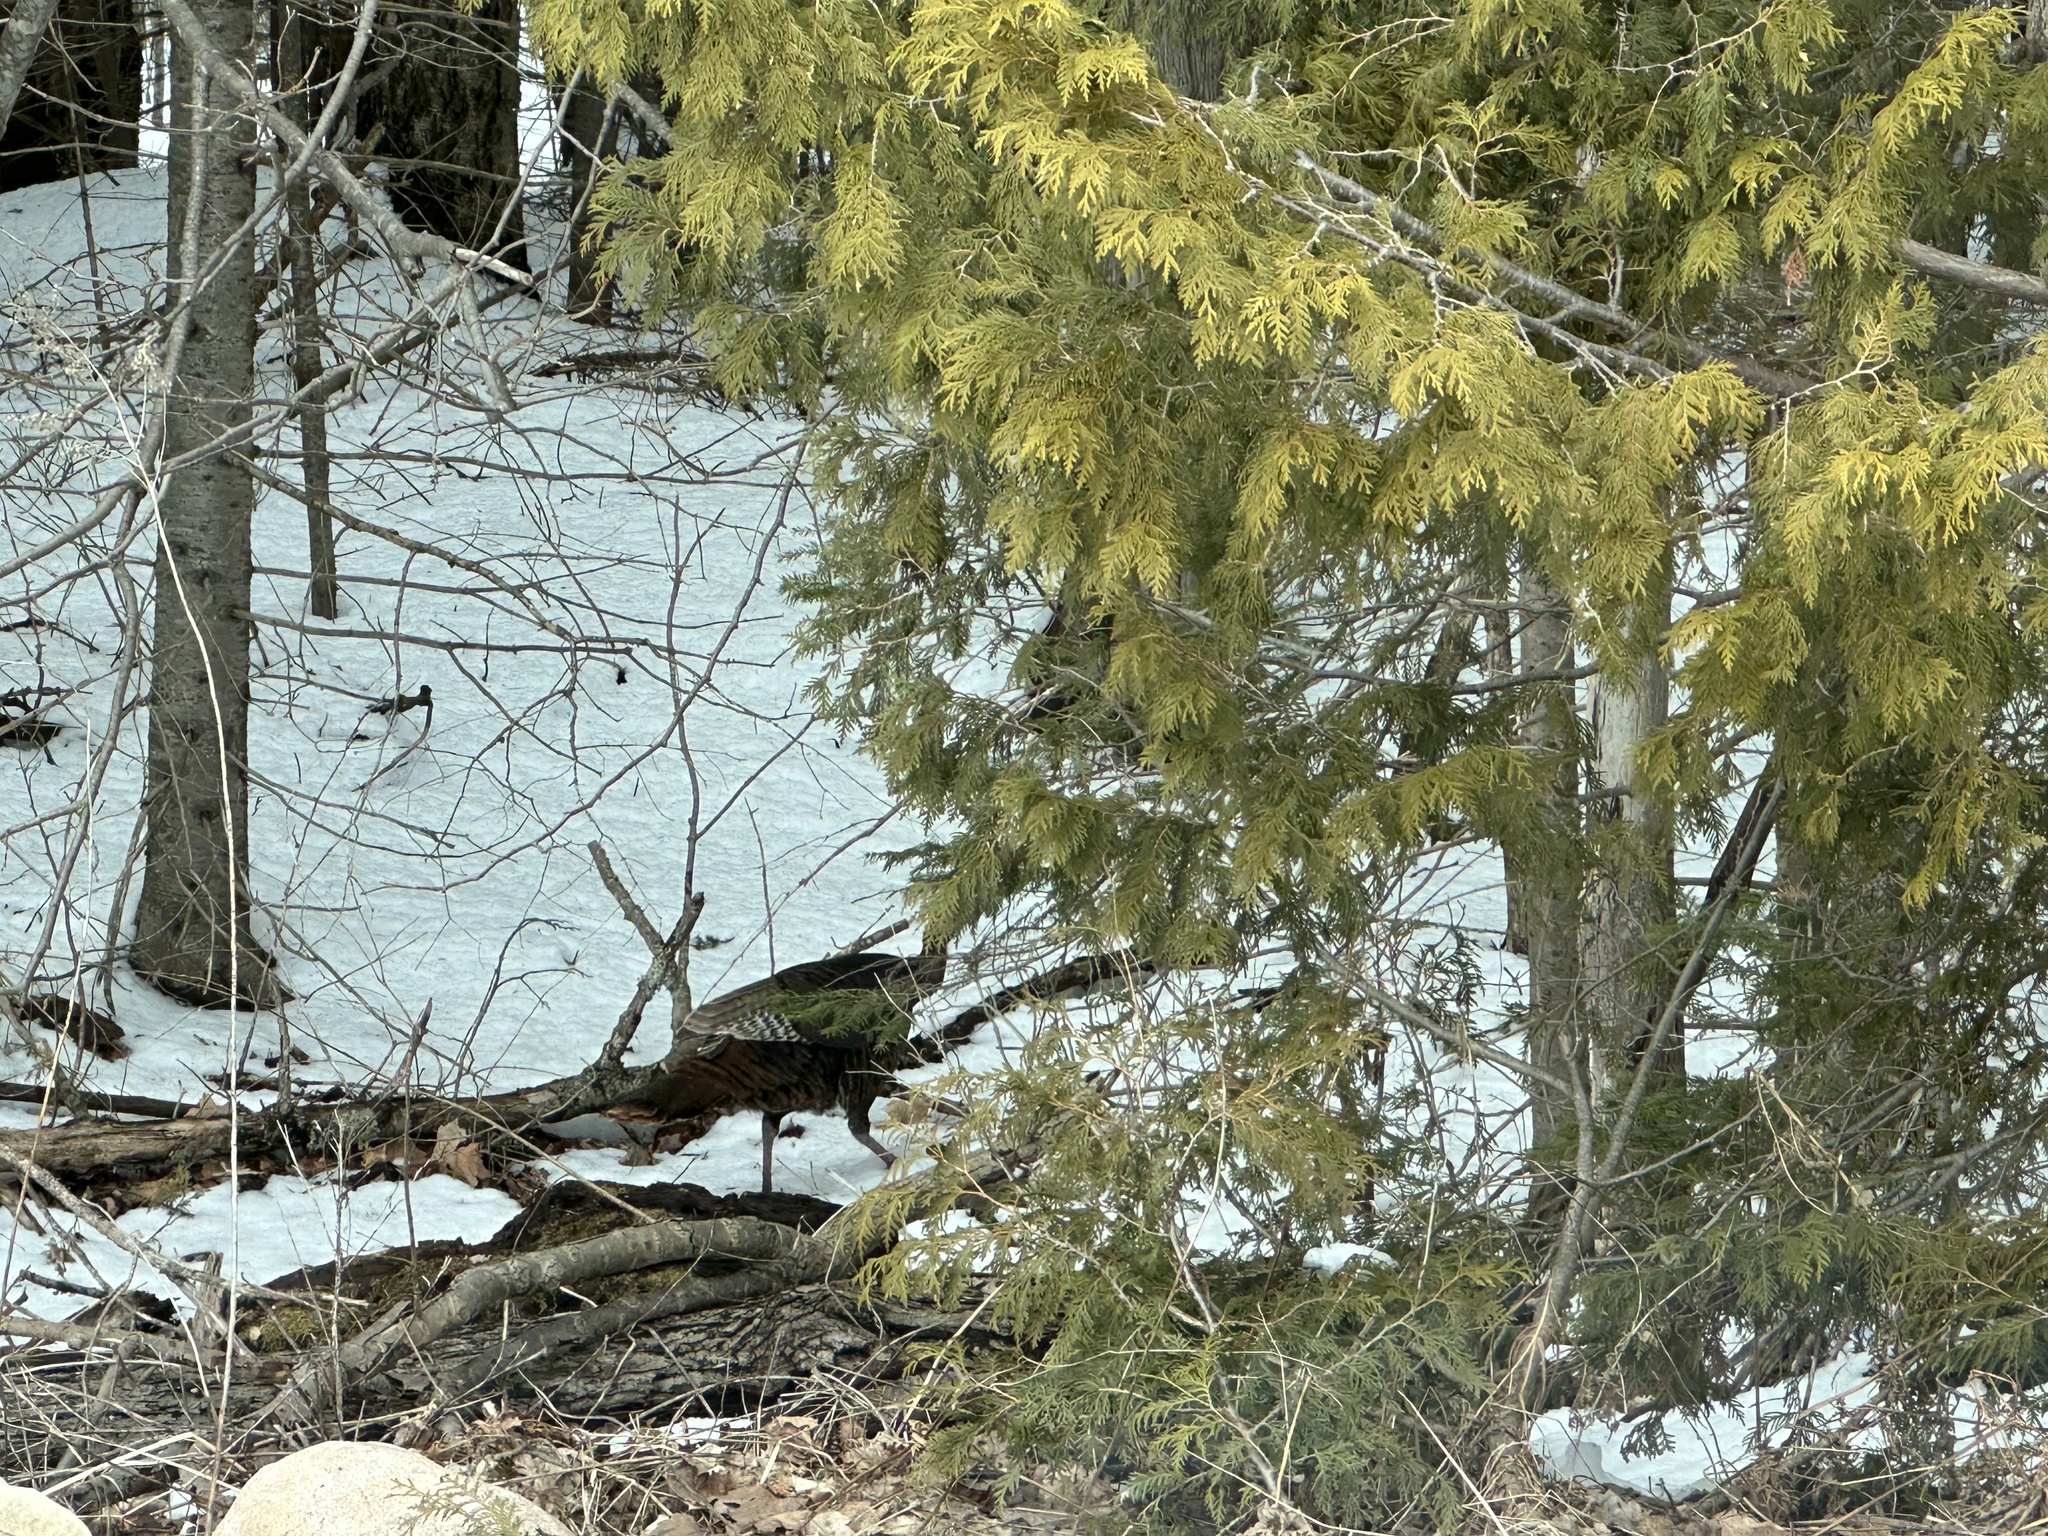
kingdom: Animalia
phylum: Chordata
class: Aves
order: Galliformes
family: Phasianidae
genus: Meleagris
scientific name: Meleagris gallopavo
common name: Wild turkey
